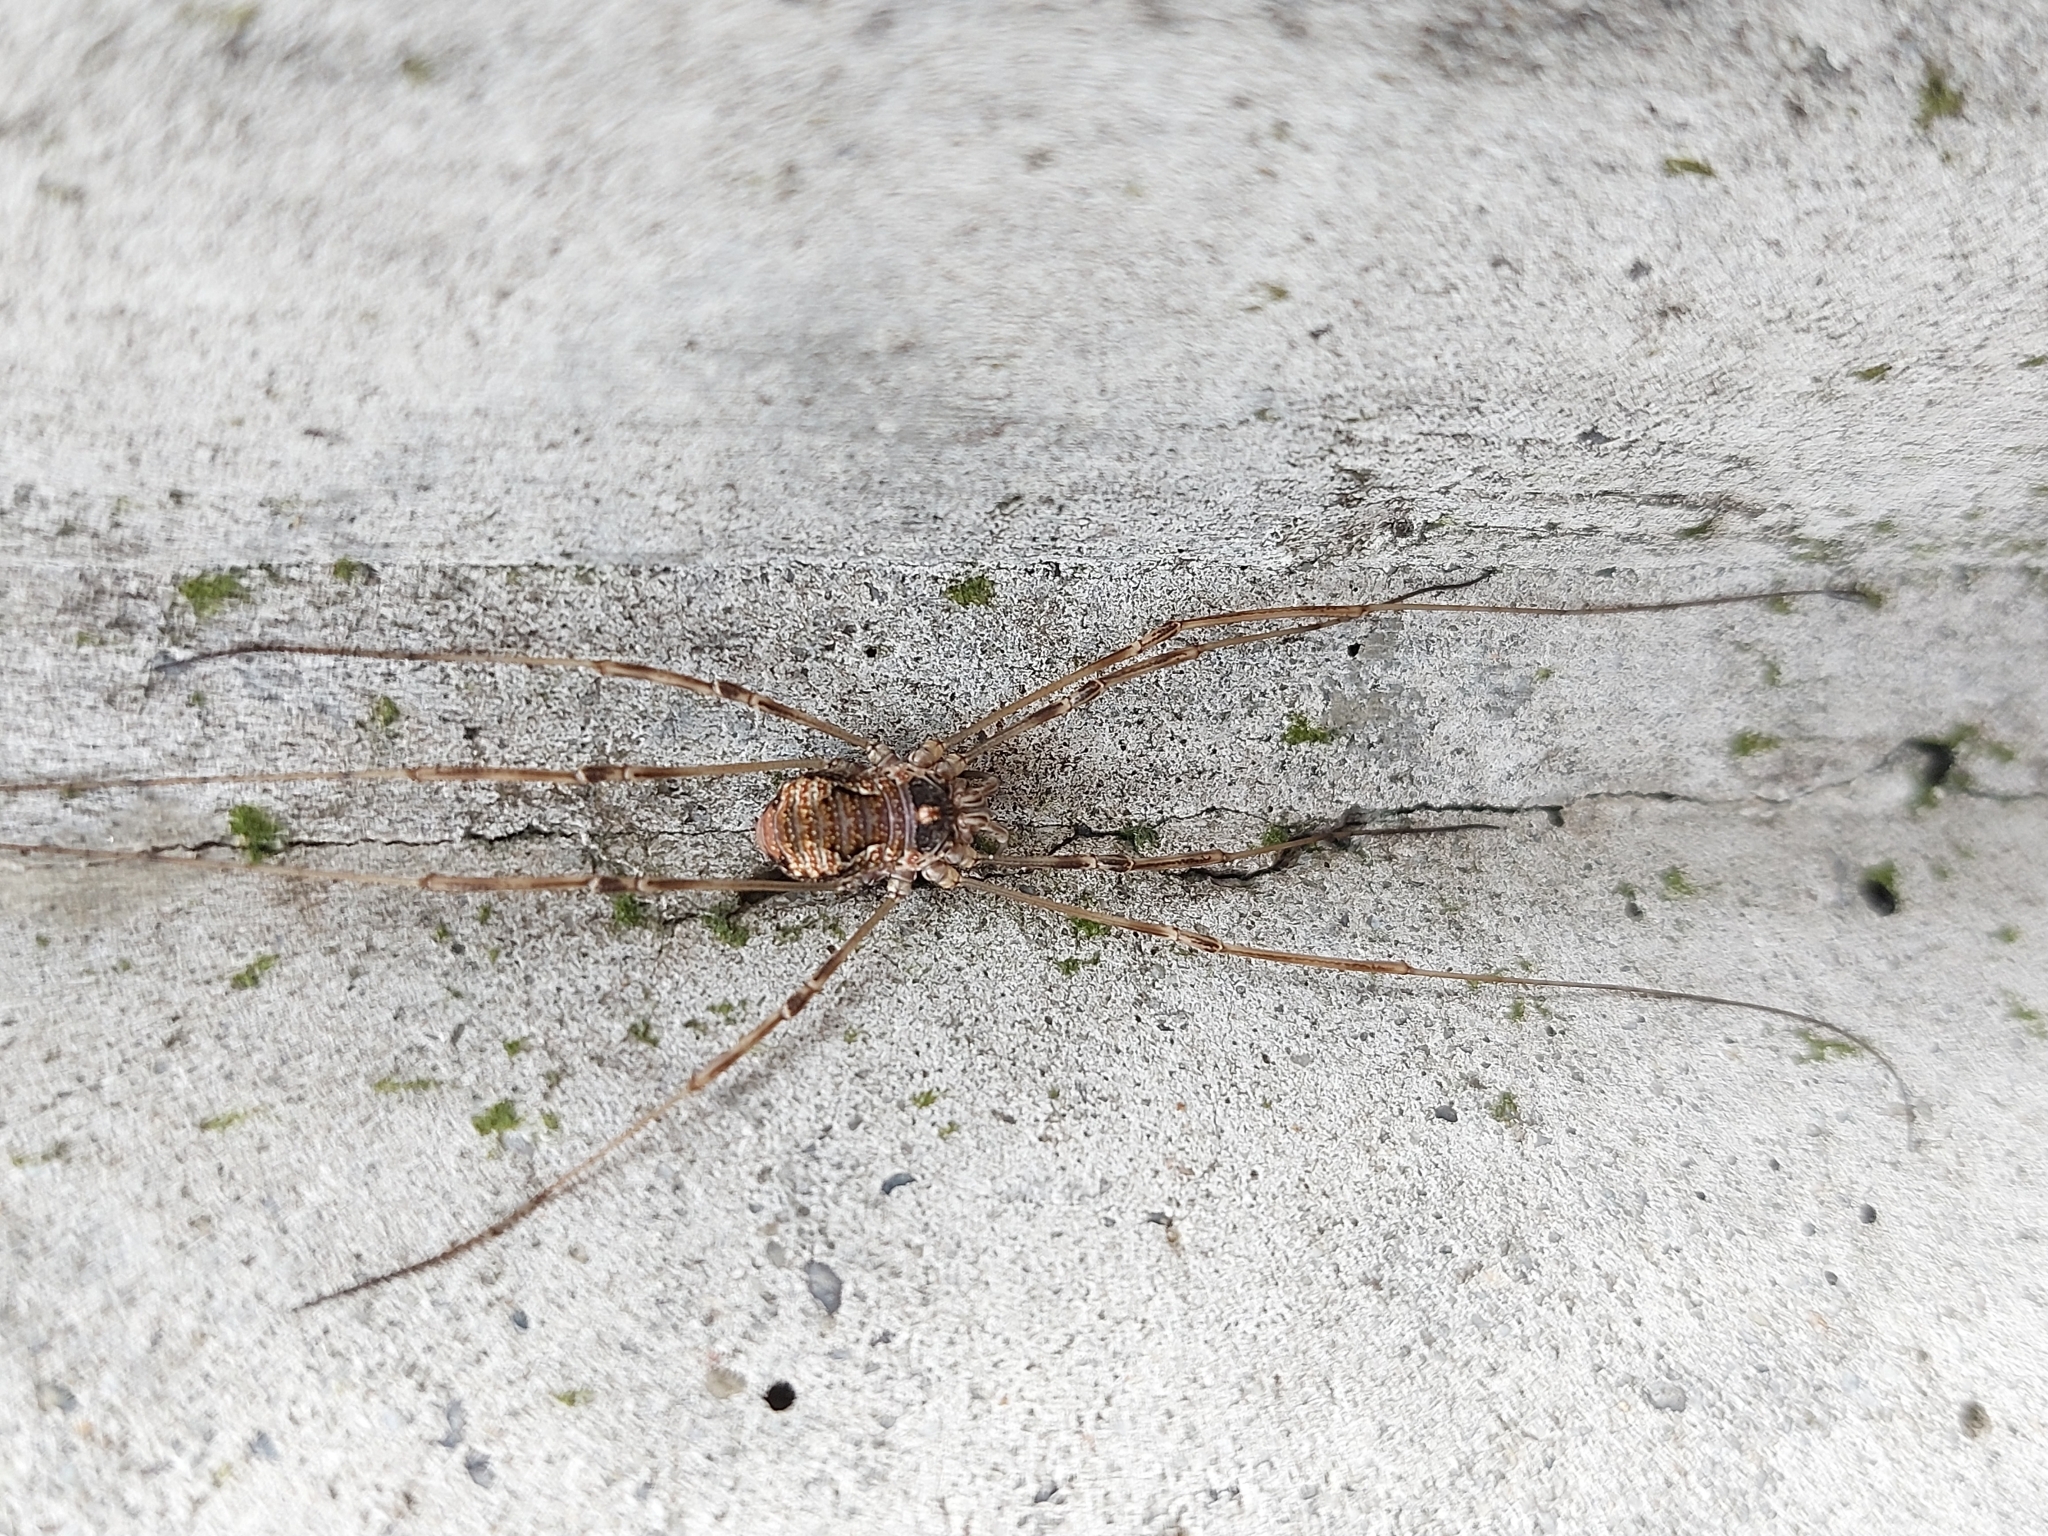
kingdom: Animalia
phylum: Arthropoda
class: Arachnida
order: Opiliones
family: Phalangiidae
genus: Dasylobus
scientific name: Dasylobus graniferus
